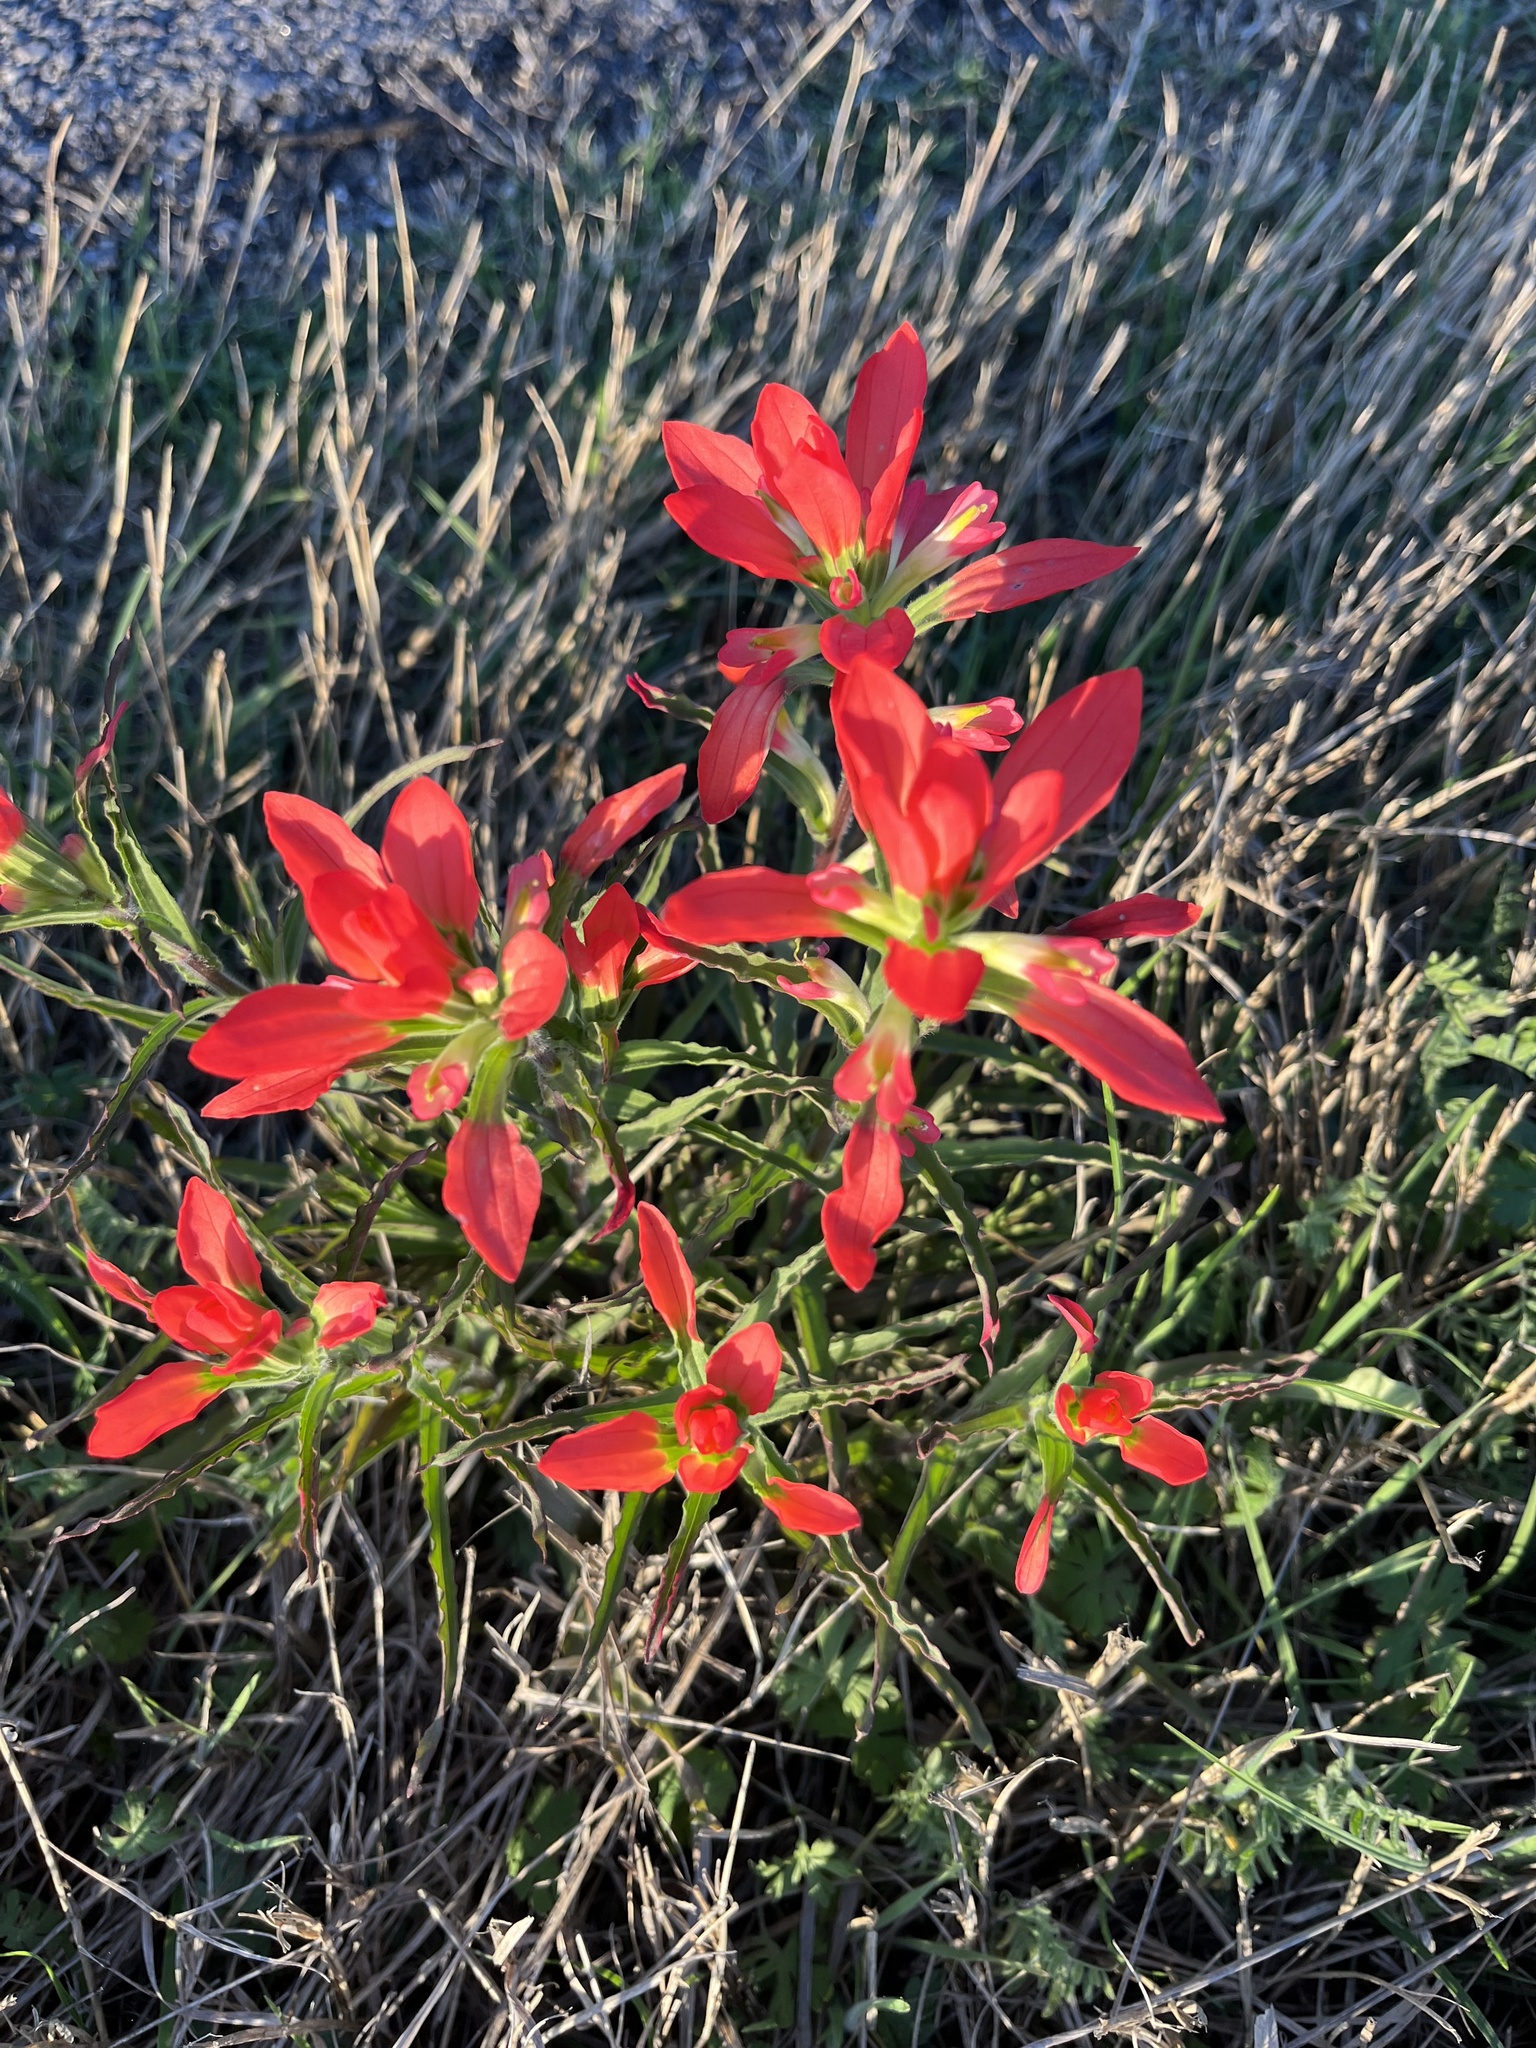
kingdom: Plantae
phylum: Tracheophyta
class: Magnoliopsida
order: Lamiales
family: Orobanchaceae
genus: Castilleja
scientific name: Castilleja indivisa
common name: Texas paintbrush
